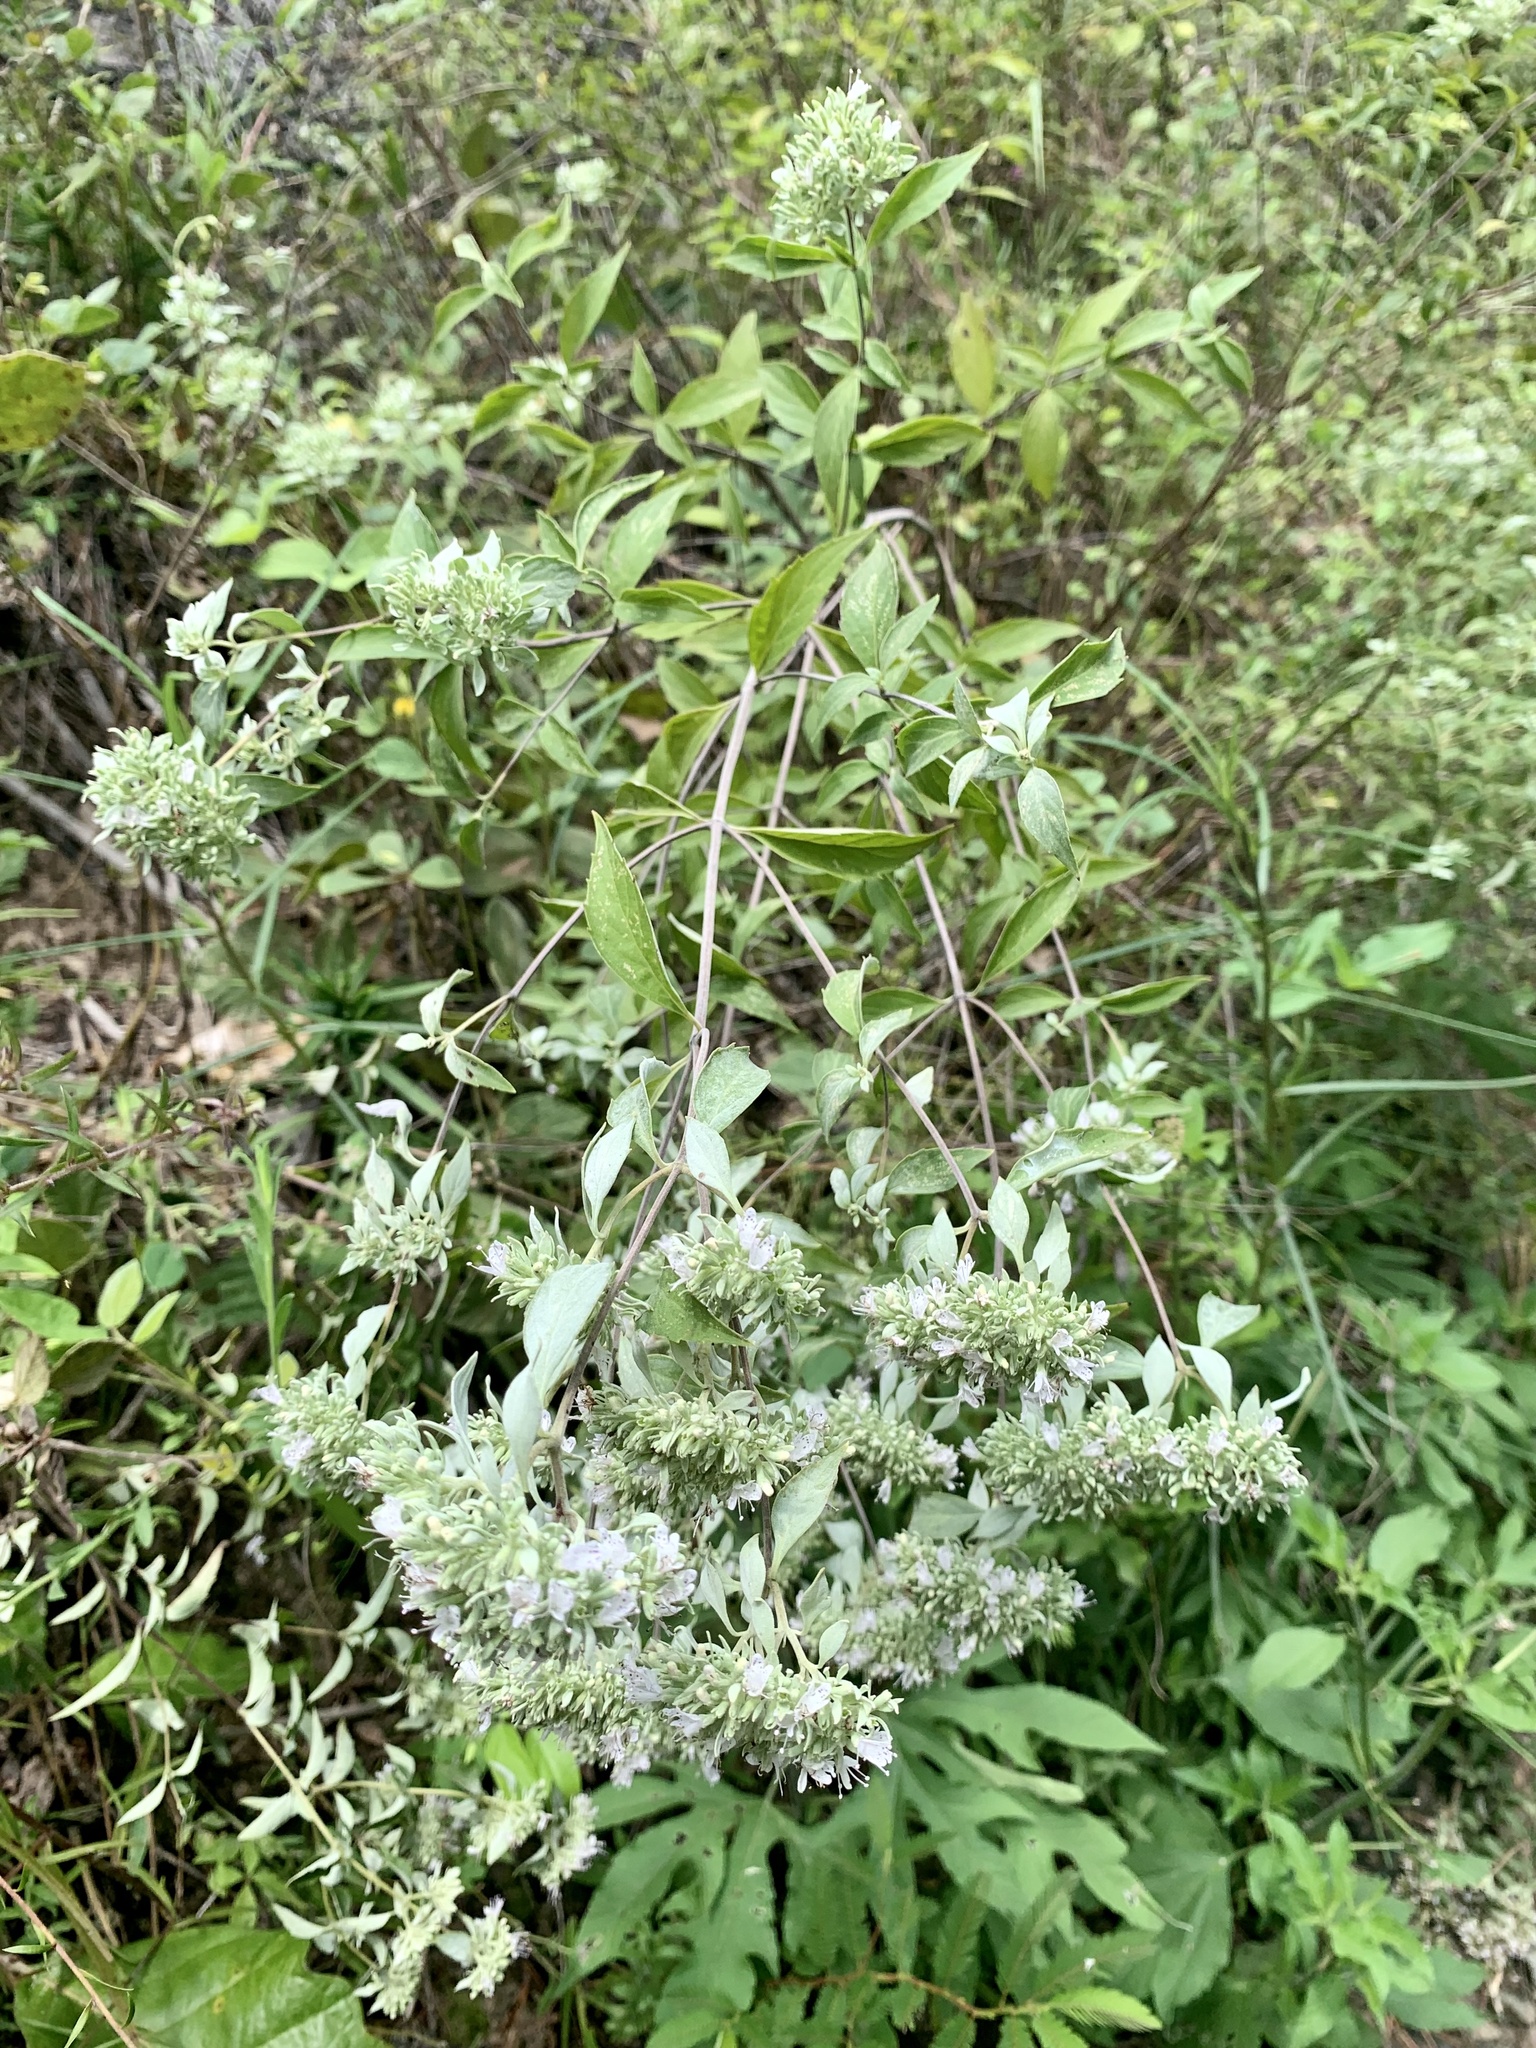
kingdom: Plantae
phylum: Tracheophyta
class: Magnoliopsida
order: Lamiales
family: Lamiaceae
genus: Pycnanthemum
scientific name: Pycnanthemum albescens
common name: White-leaf mountain-mint
